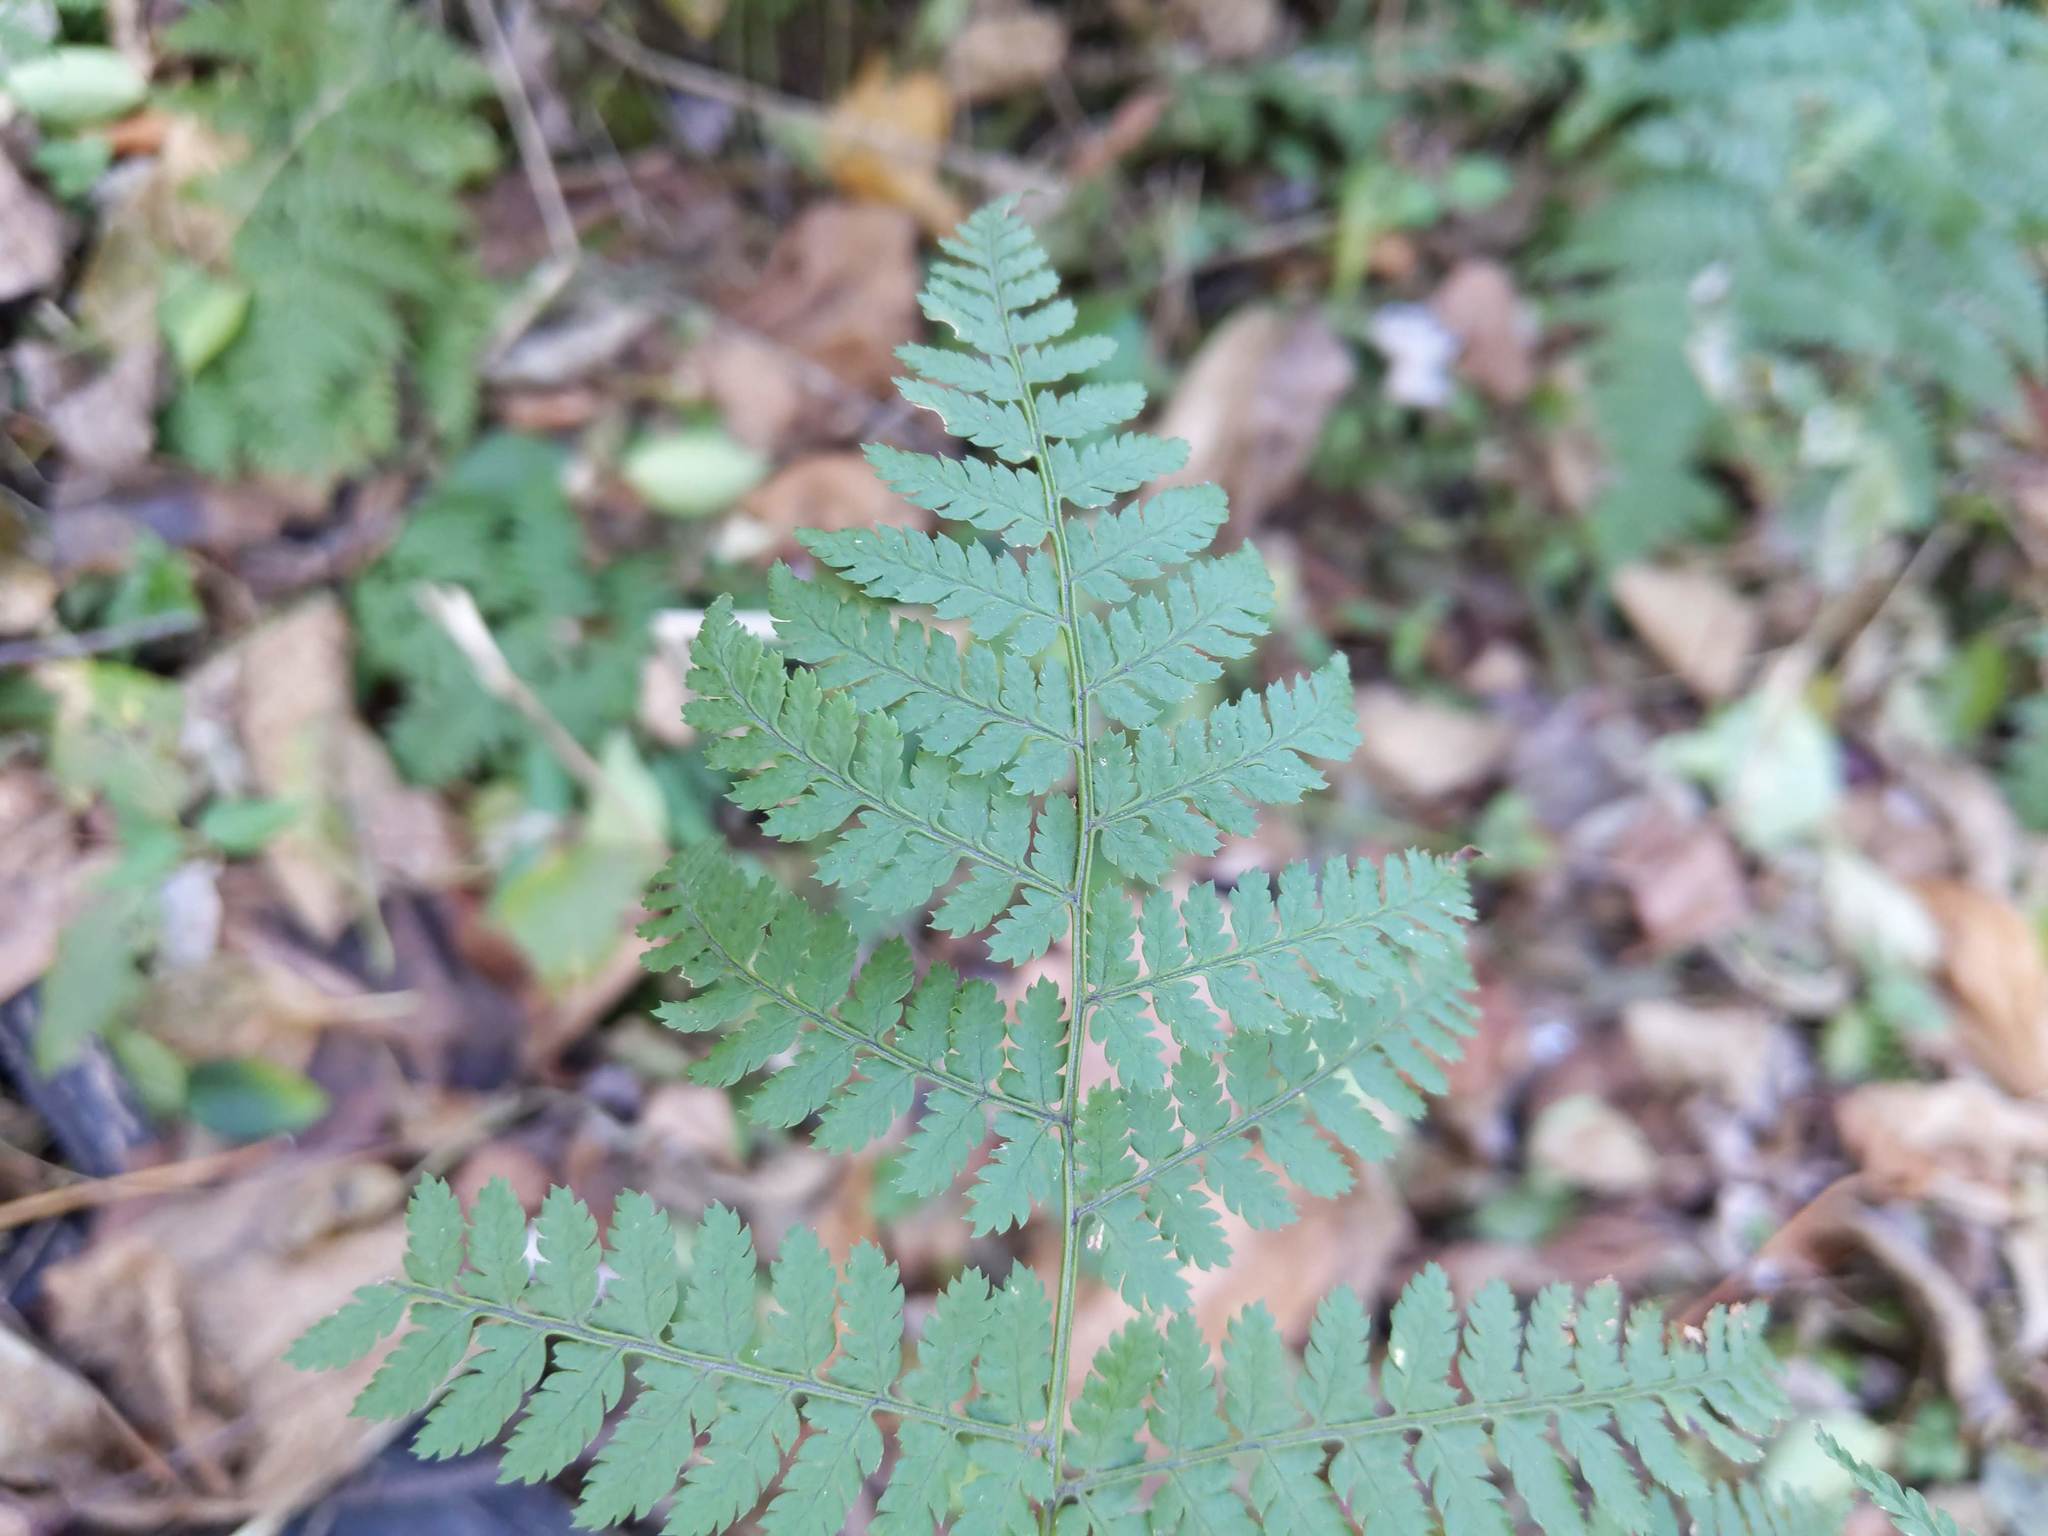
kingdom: Plantae
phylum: Tracheophyta
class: Polypodiopsida
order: Polypodiales
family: Dryopteridaceae
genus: Dryopteris
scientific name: Dryopteris intermedia
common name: Evergreen wood fern
